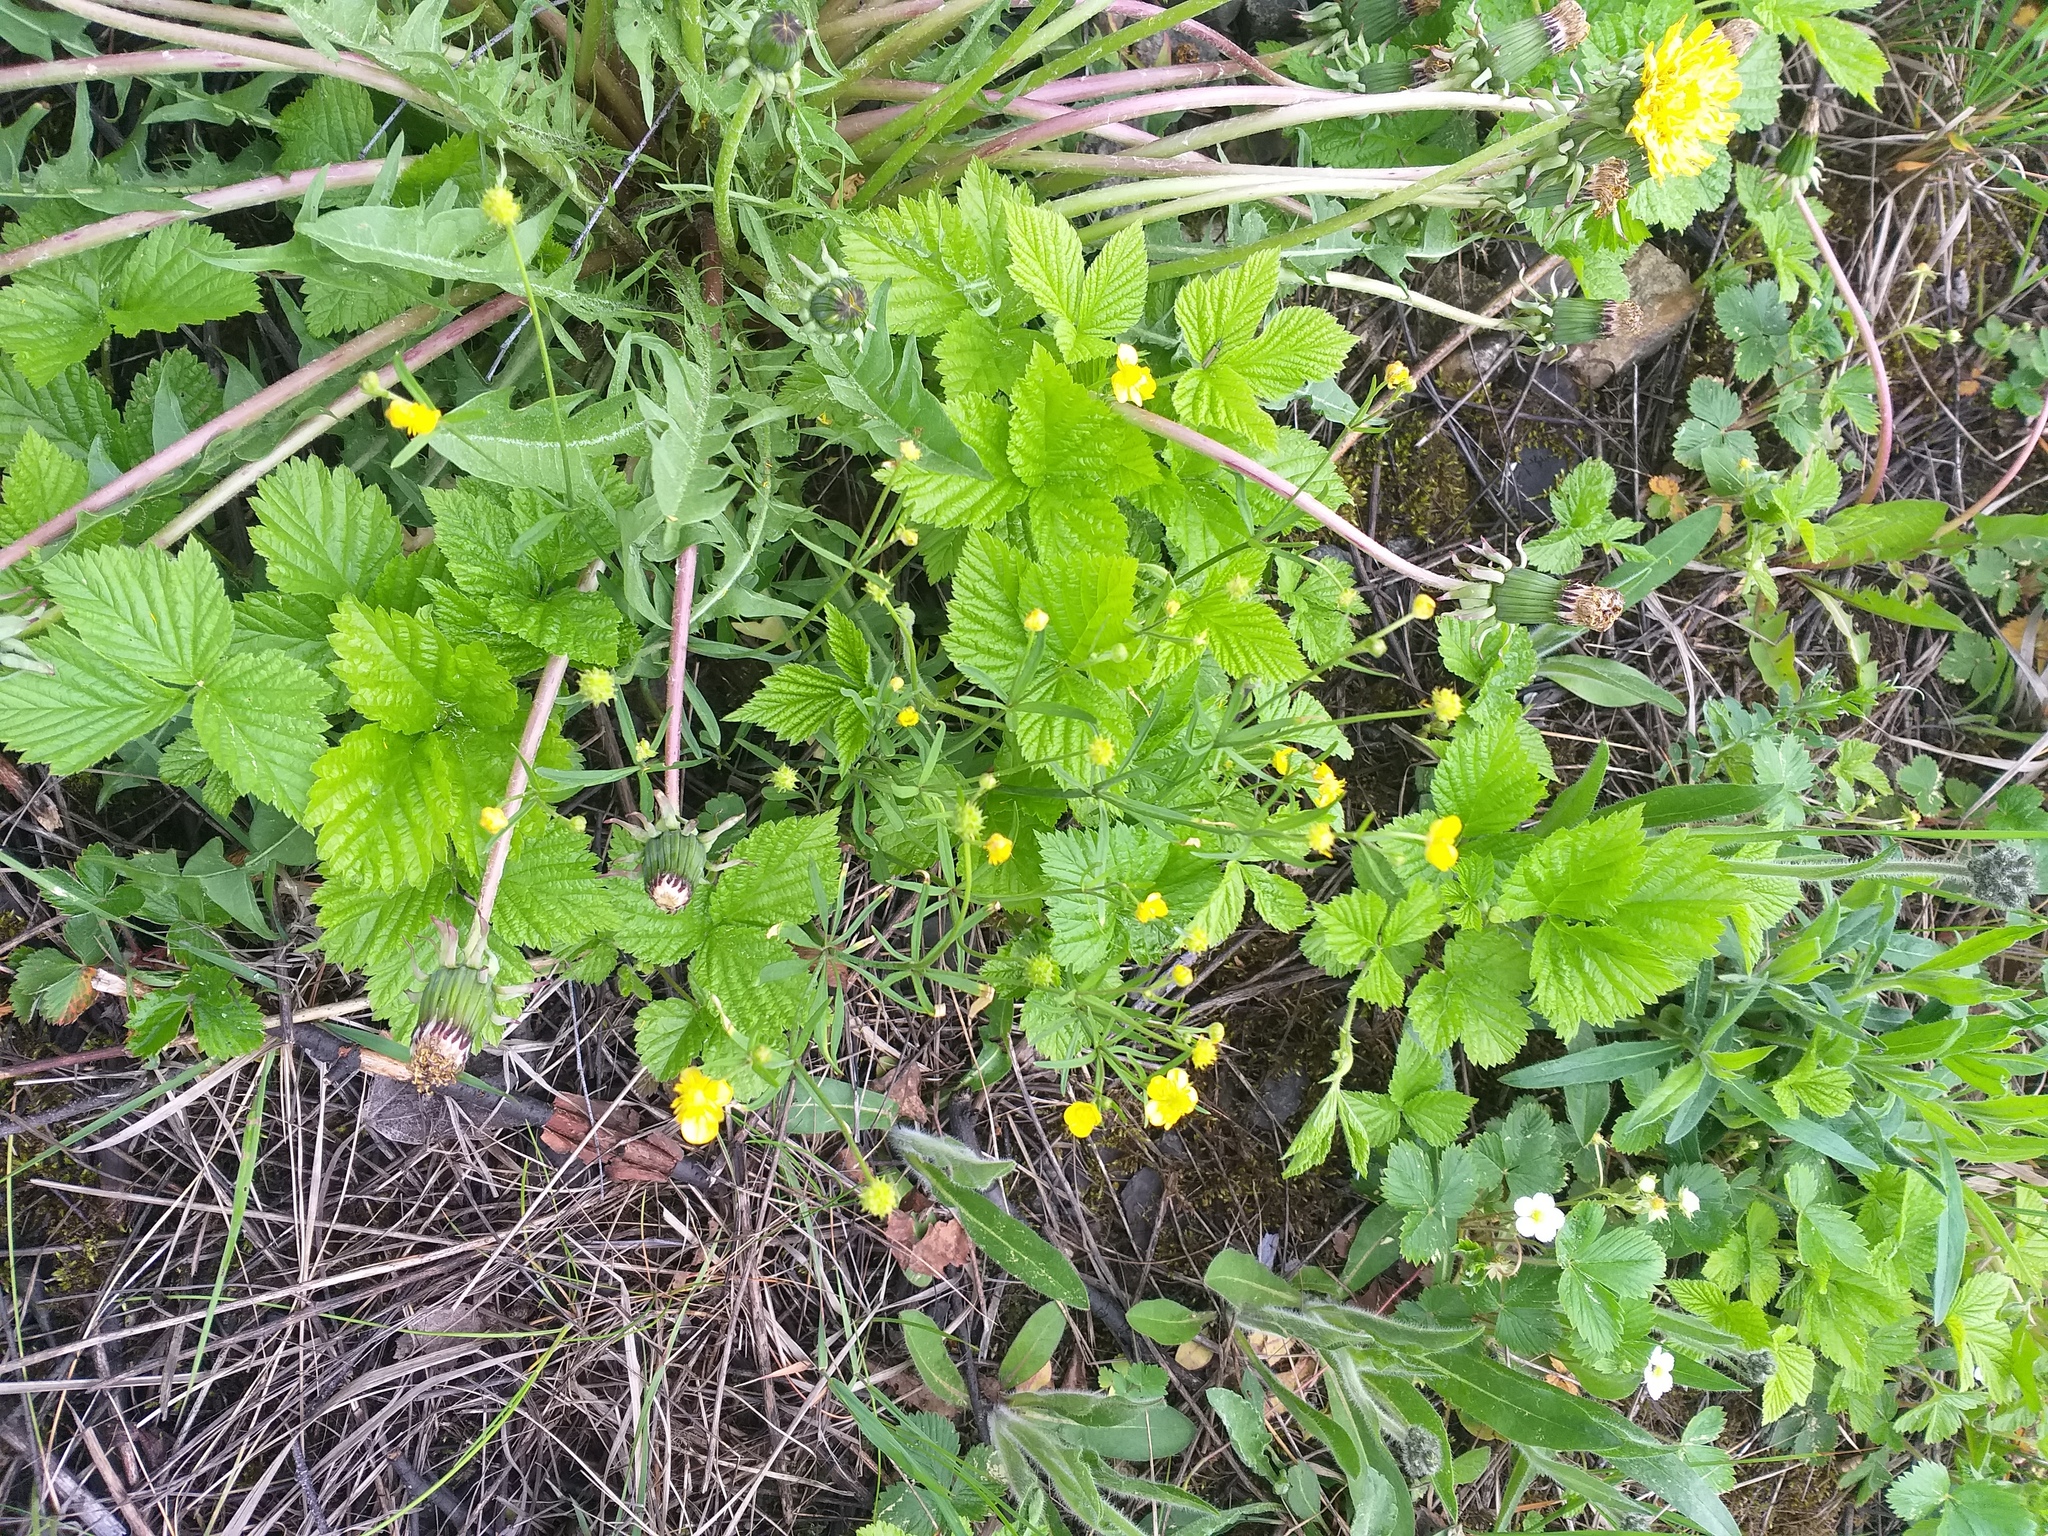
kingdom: Plantae
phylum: Tracheophyta
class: Magnoliopsida
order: Ranunculales
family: Ranunculaceae
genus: Ranunculus
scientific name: Ranunculus auricomus
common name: Goldilocks buttercup
